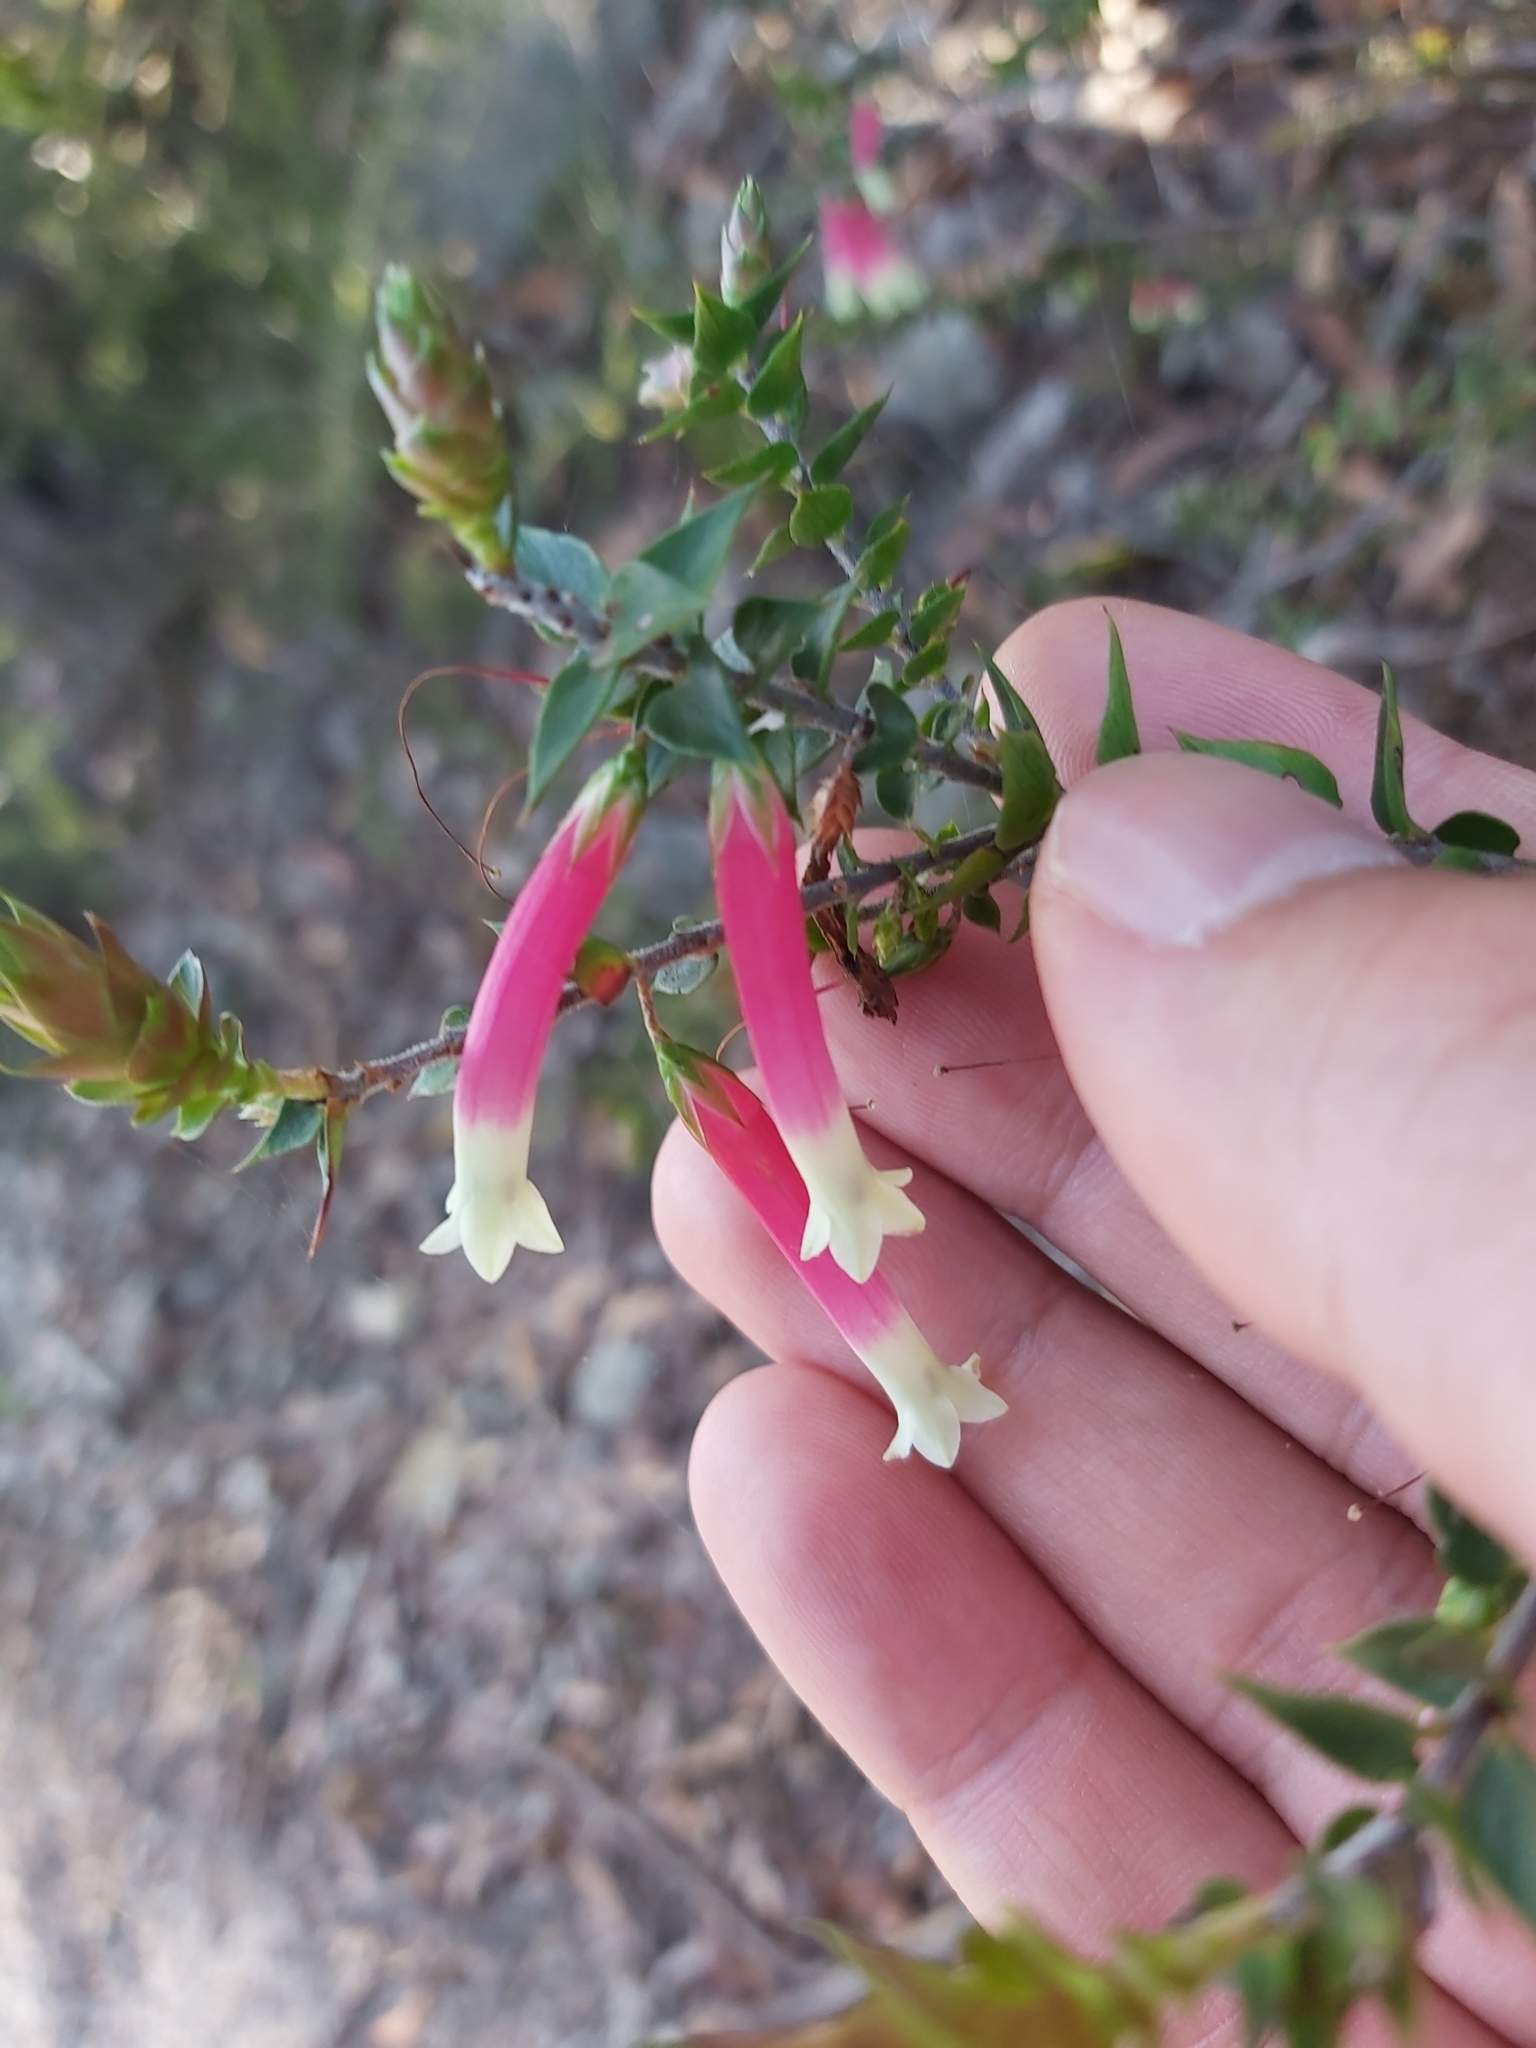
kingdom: Plantae
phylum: Tracheophyta
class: Magnoliopsida
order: Ericales
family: Ericaceae
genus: Epacris
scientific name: Epacris longiflora
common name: Fuchsia-heath
